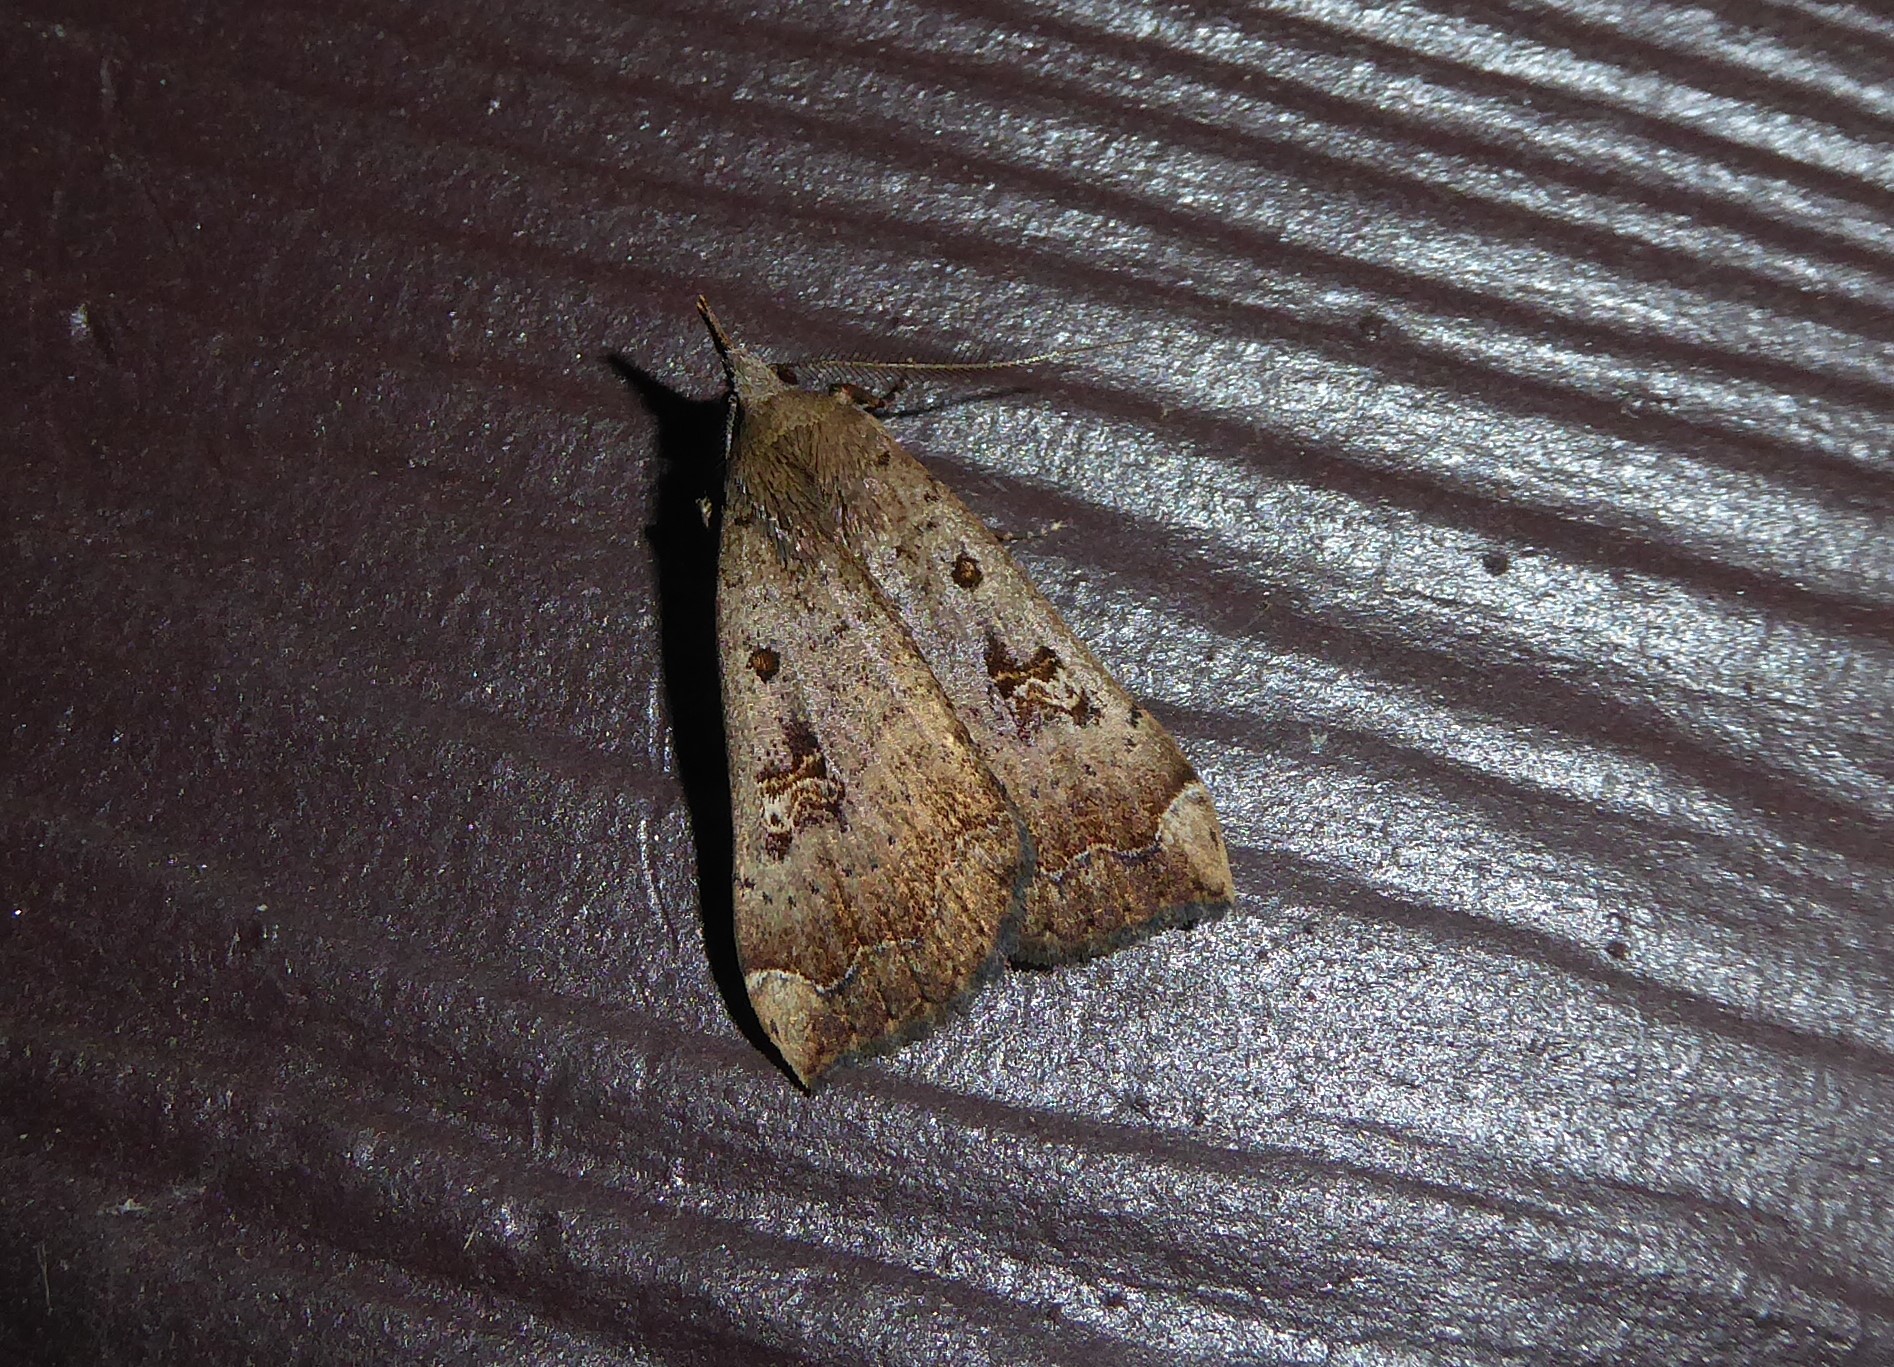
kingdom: Animalia
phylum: Arthropoda
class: Insecta
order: Lepidoptera
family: Erebidae
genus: Rhapsa
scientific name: Rhapsa scotosialis
